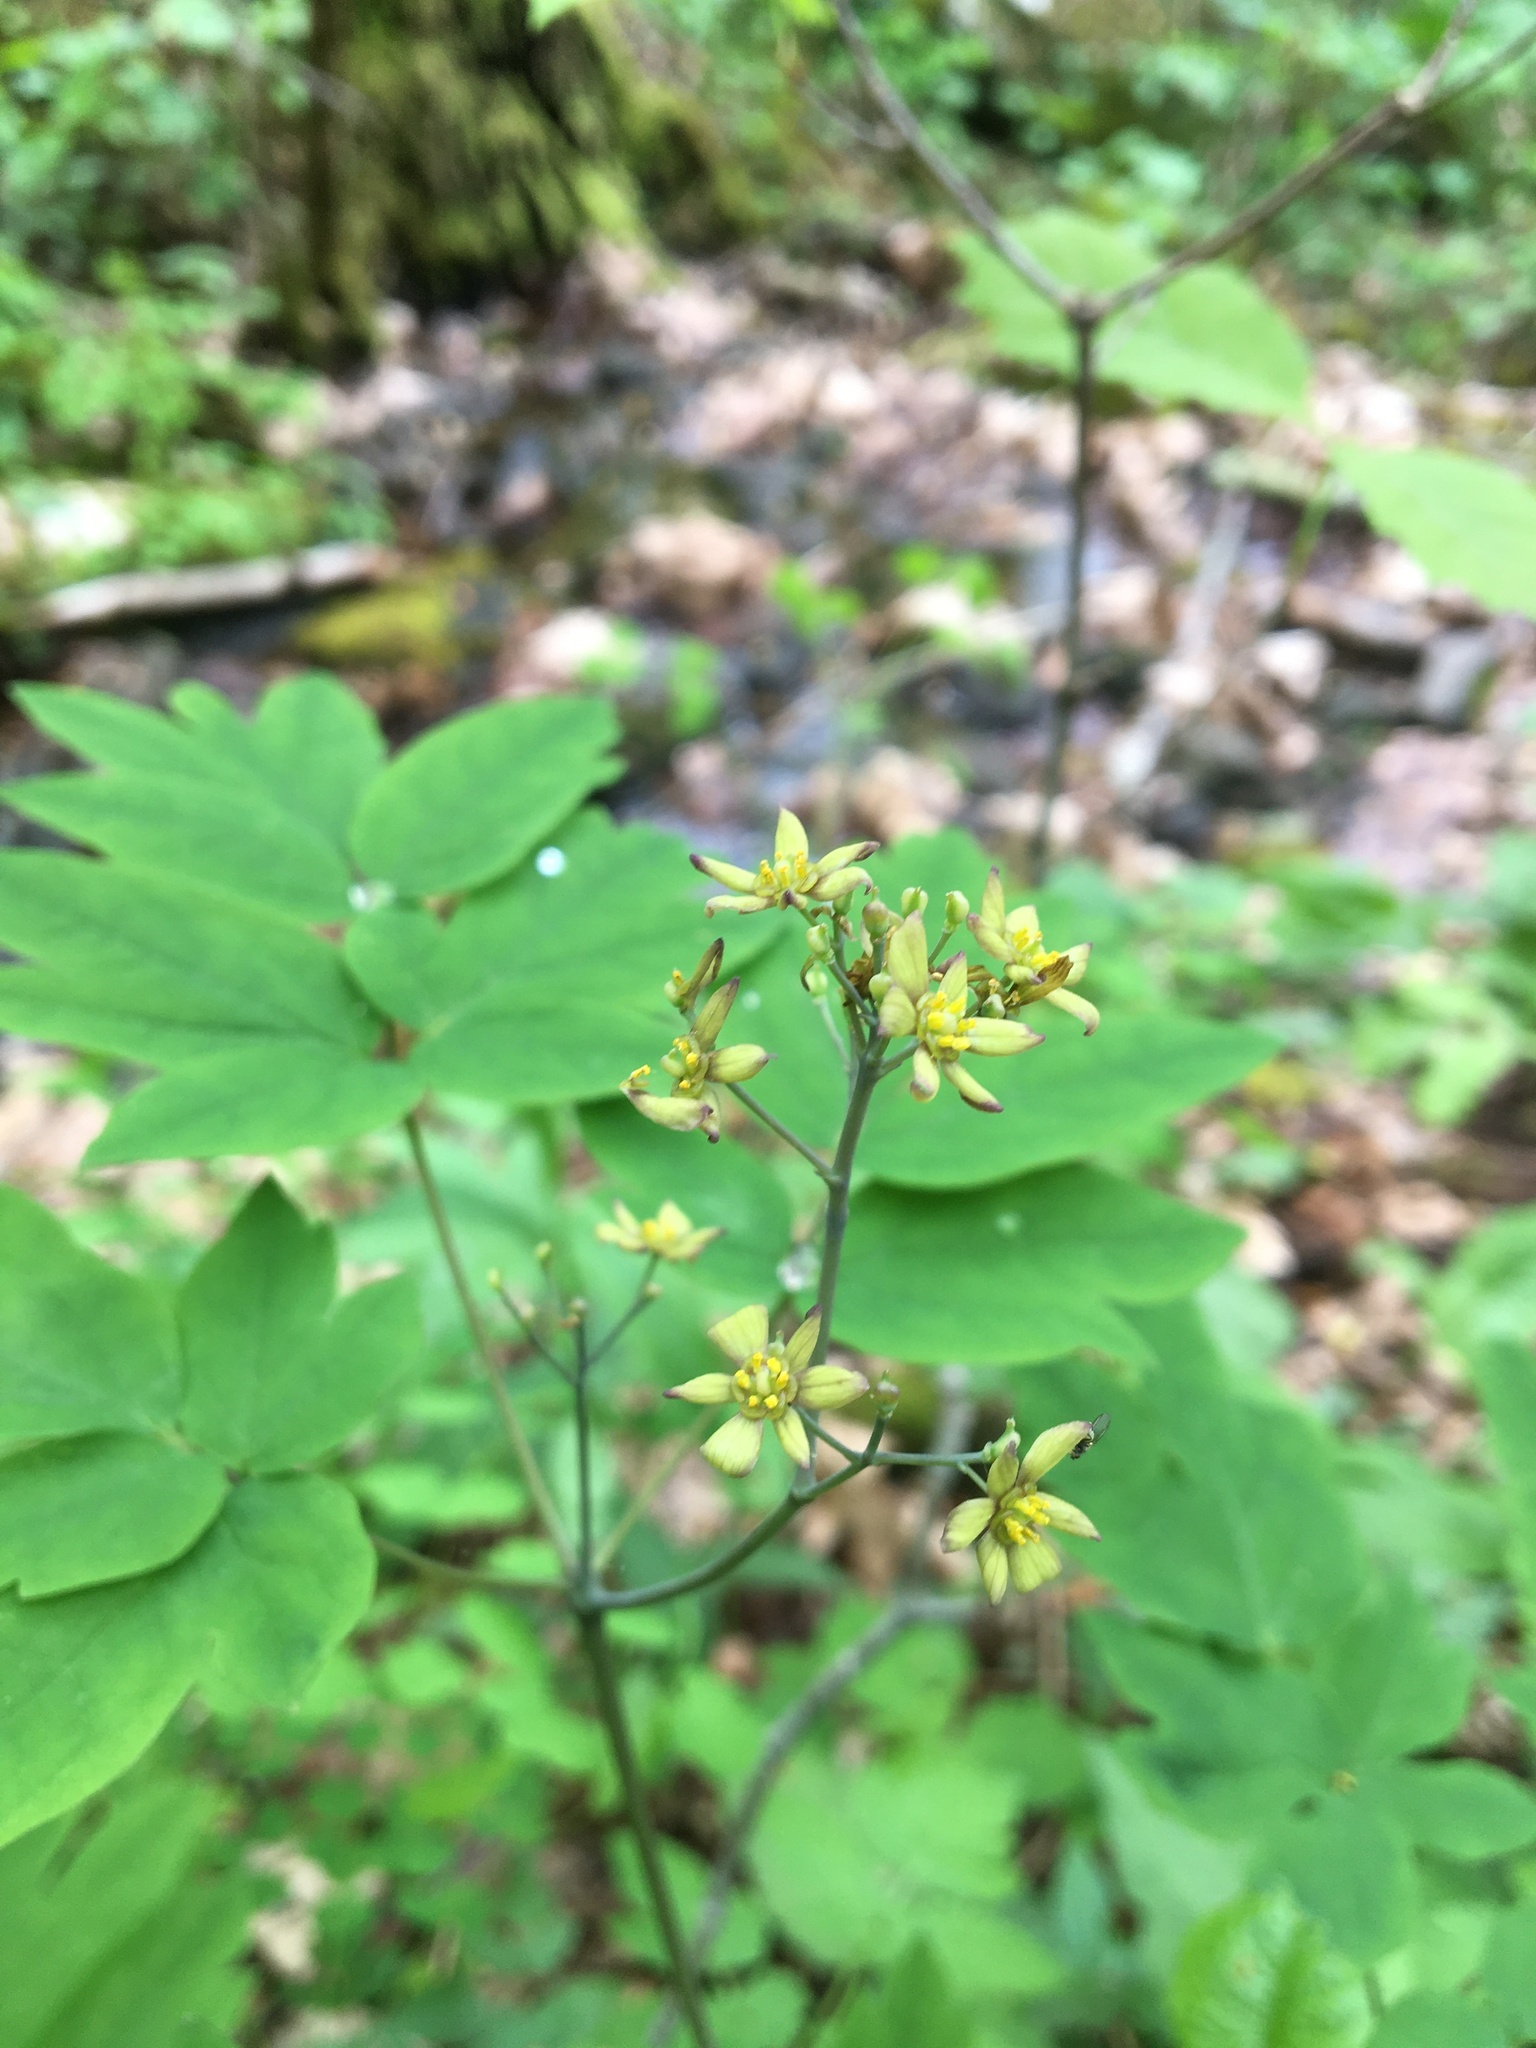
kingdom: Plantae
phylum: Tracheophyta
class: Magnoliopsida
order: Ranunculales
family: Berberidaceae
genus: Caulophyllum
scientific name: Caulophyllum thalictroides
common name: Blue cohosh
